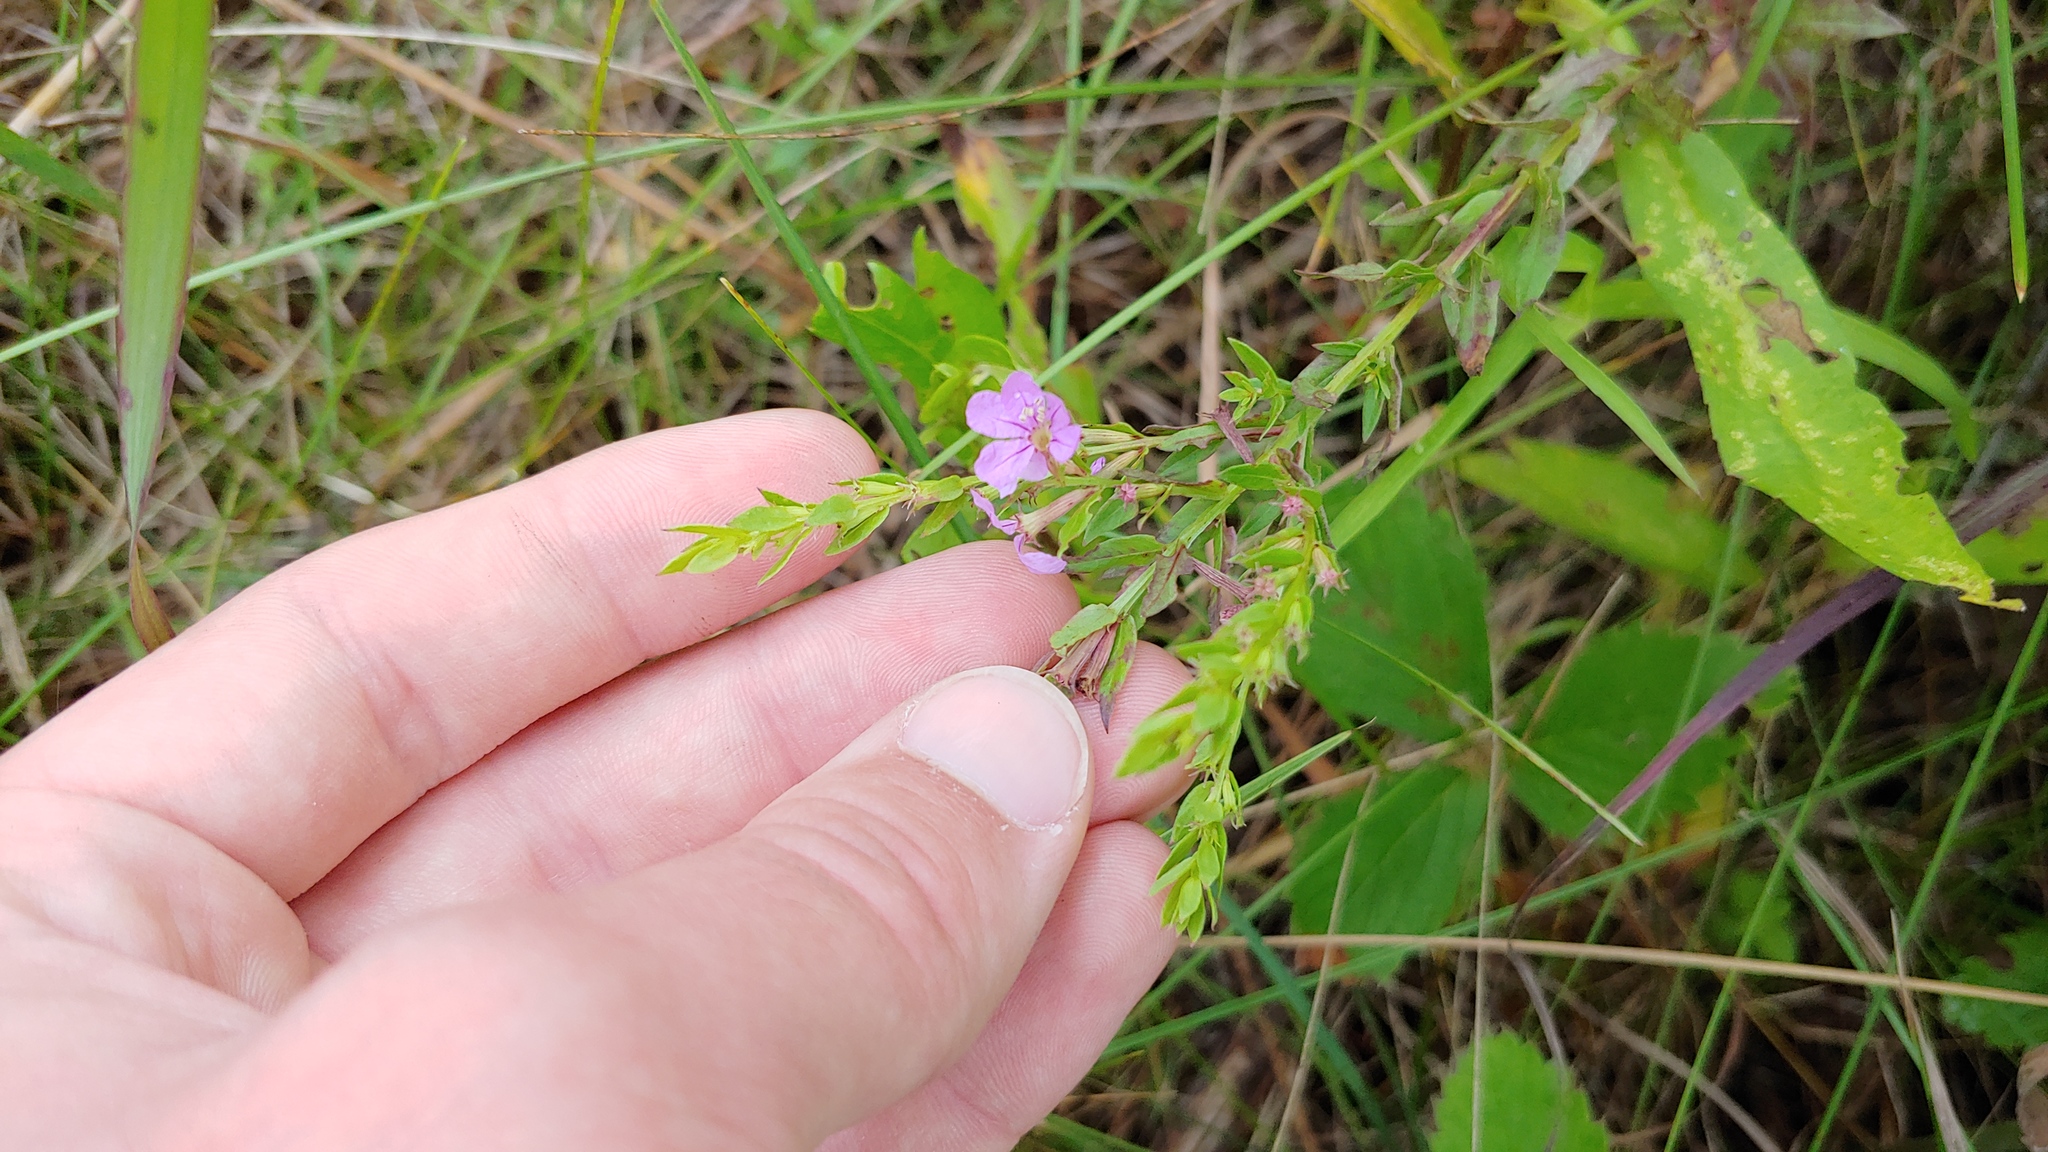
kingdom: Plantae
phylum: Tracheophyta
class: Magnoliopsida
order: Myrtales
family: Lythraceae
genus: Lythrum
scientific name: Lythrum alatum
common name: Winged loosestrife
